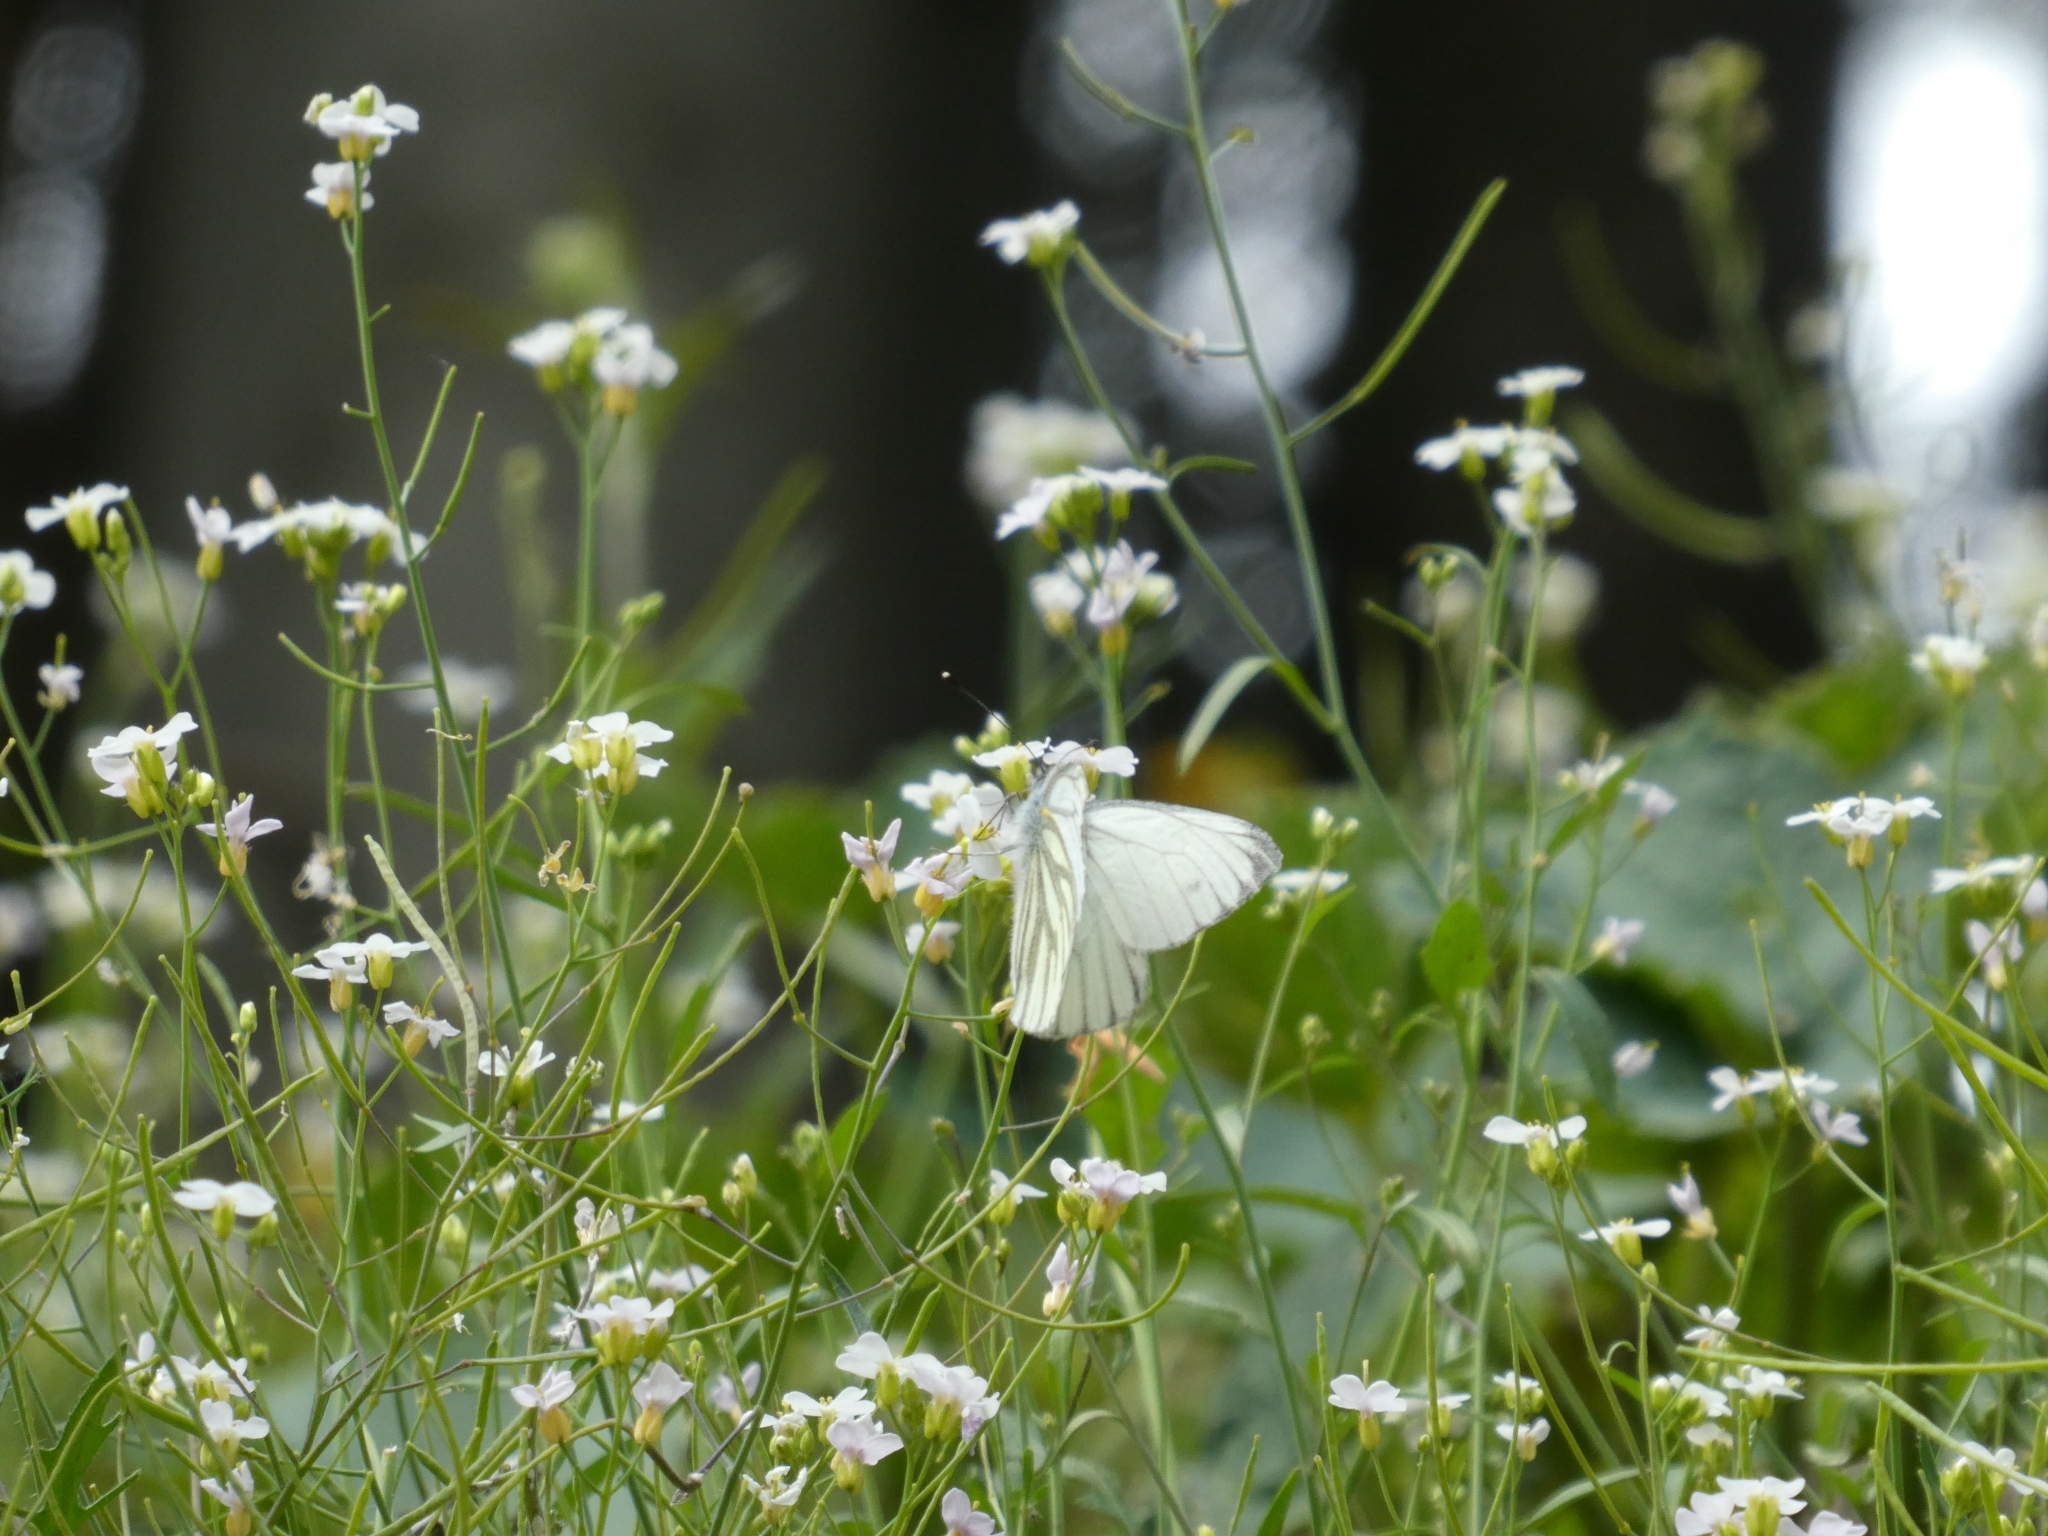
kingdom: Animalia
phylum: Arthropoda
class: Insecta
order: Lepidoptera
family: Pieridae
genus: Pieris
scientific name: Pieris napi
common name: Green-veined white
